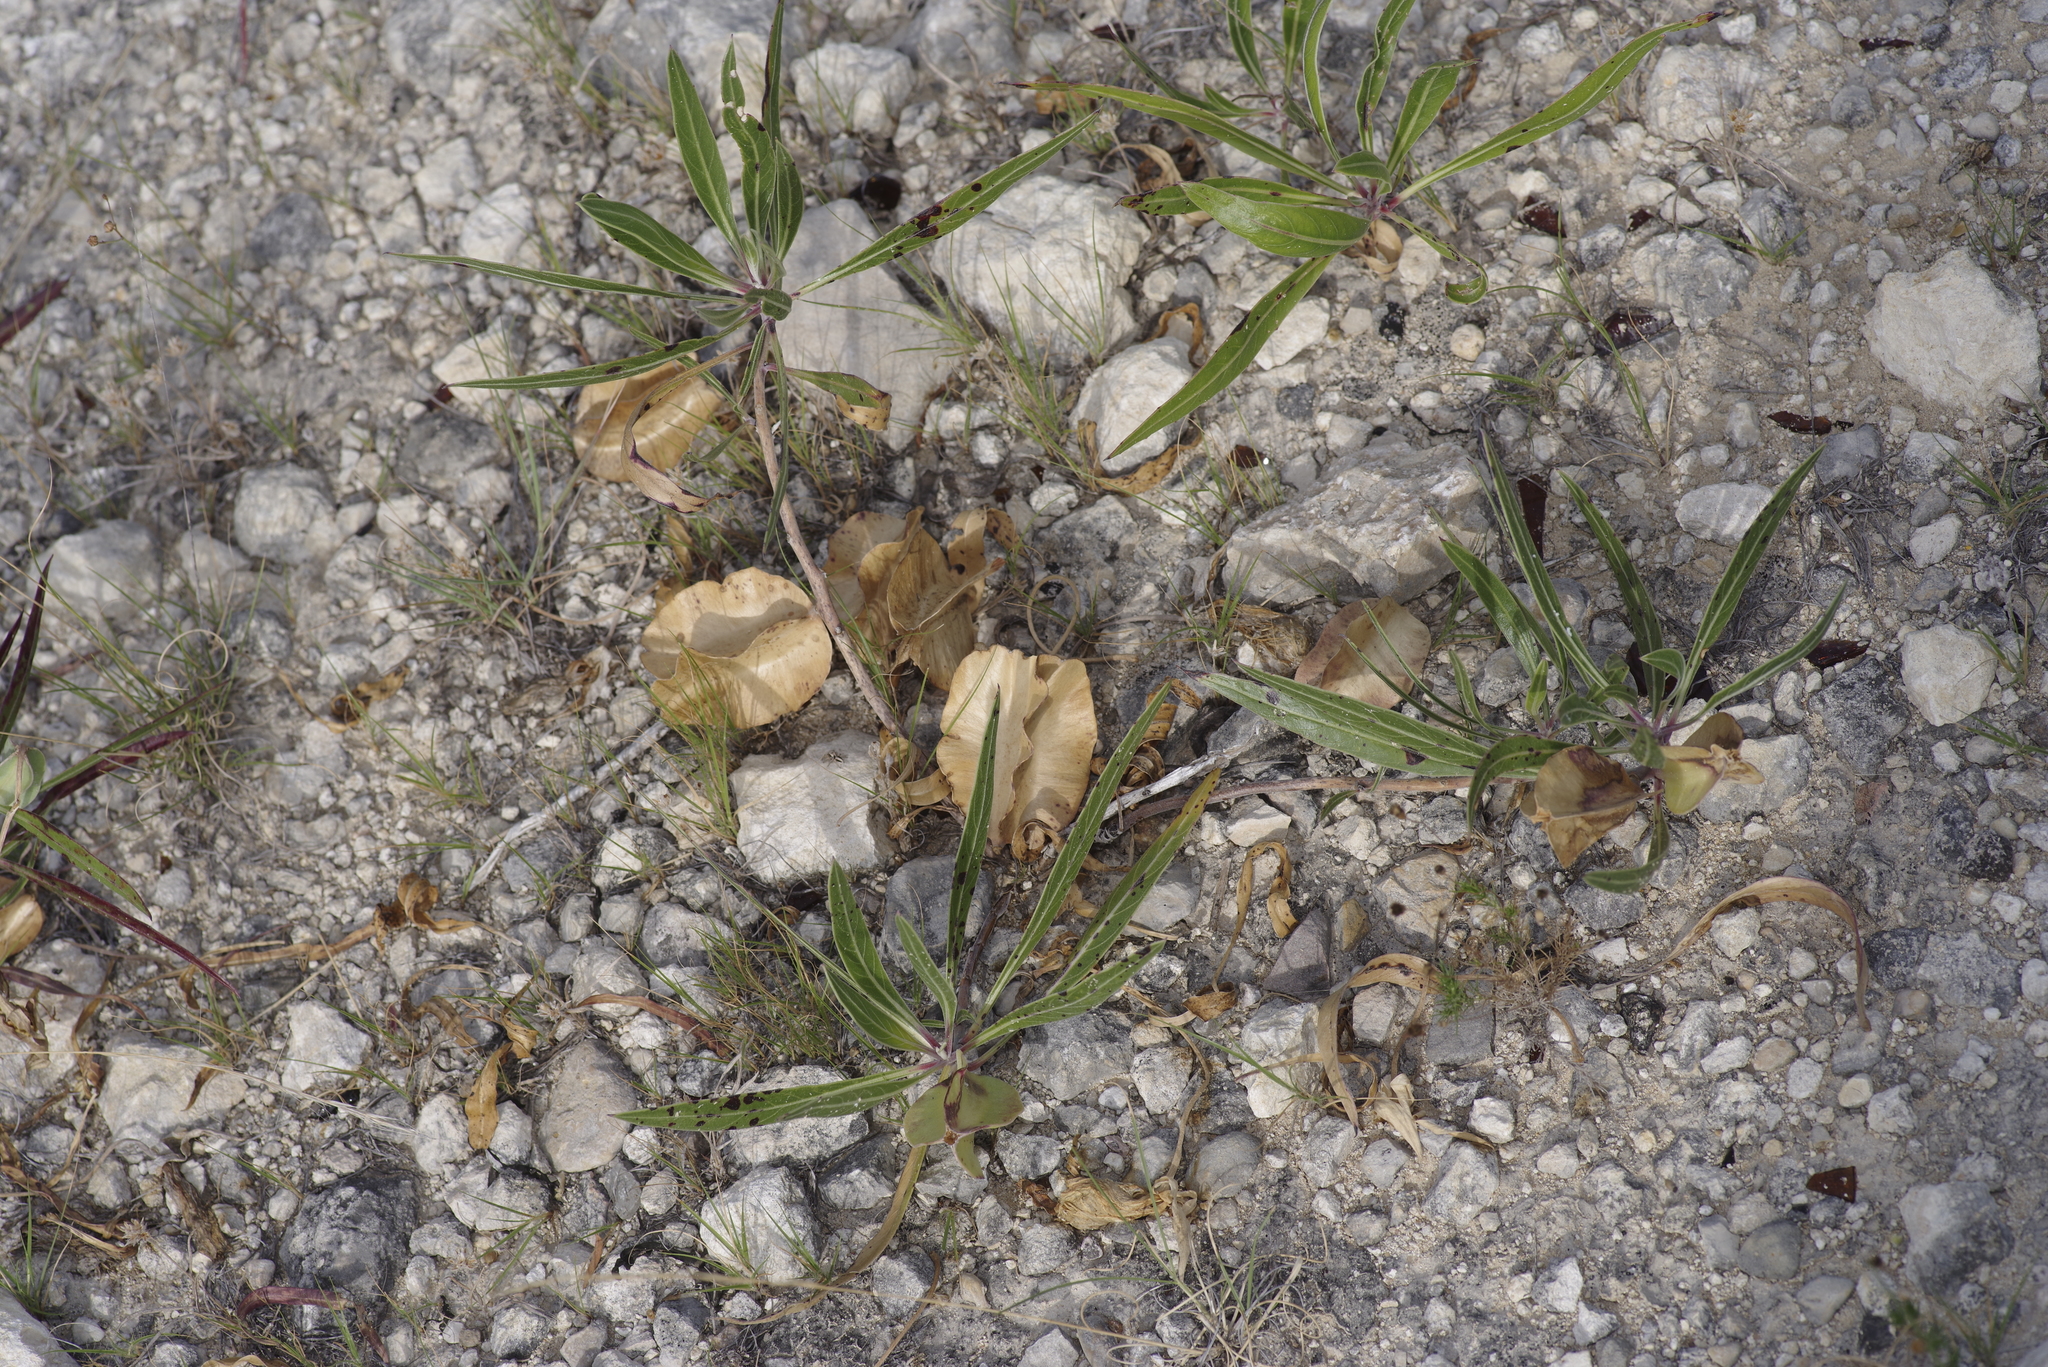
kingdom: Plantae
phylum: Tracheophyta
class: Magnoliopsida
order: Myrtales
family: Onagraceae
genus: Oenothera
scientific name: Oenothera macrocarpa
